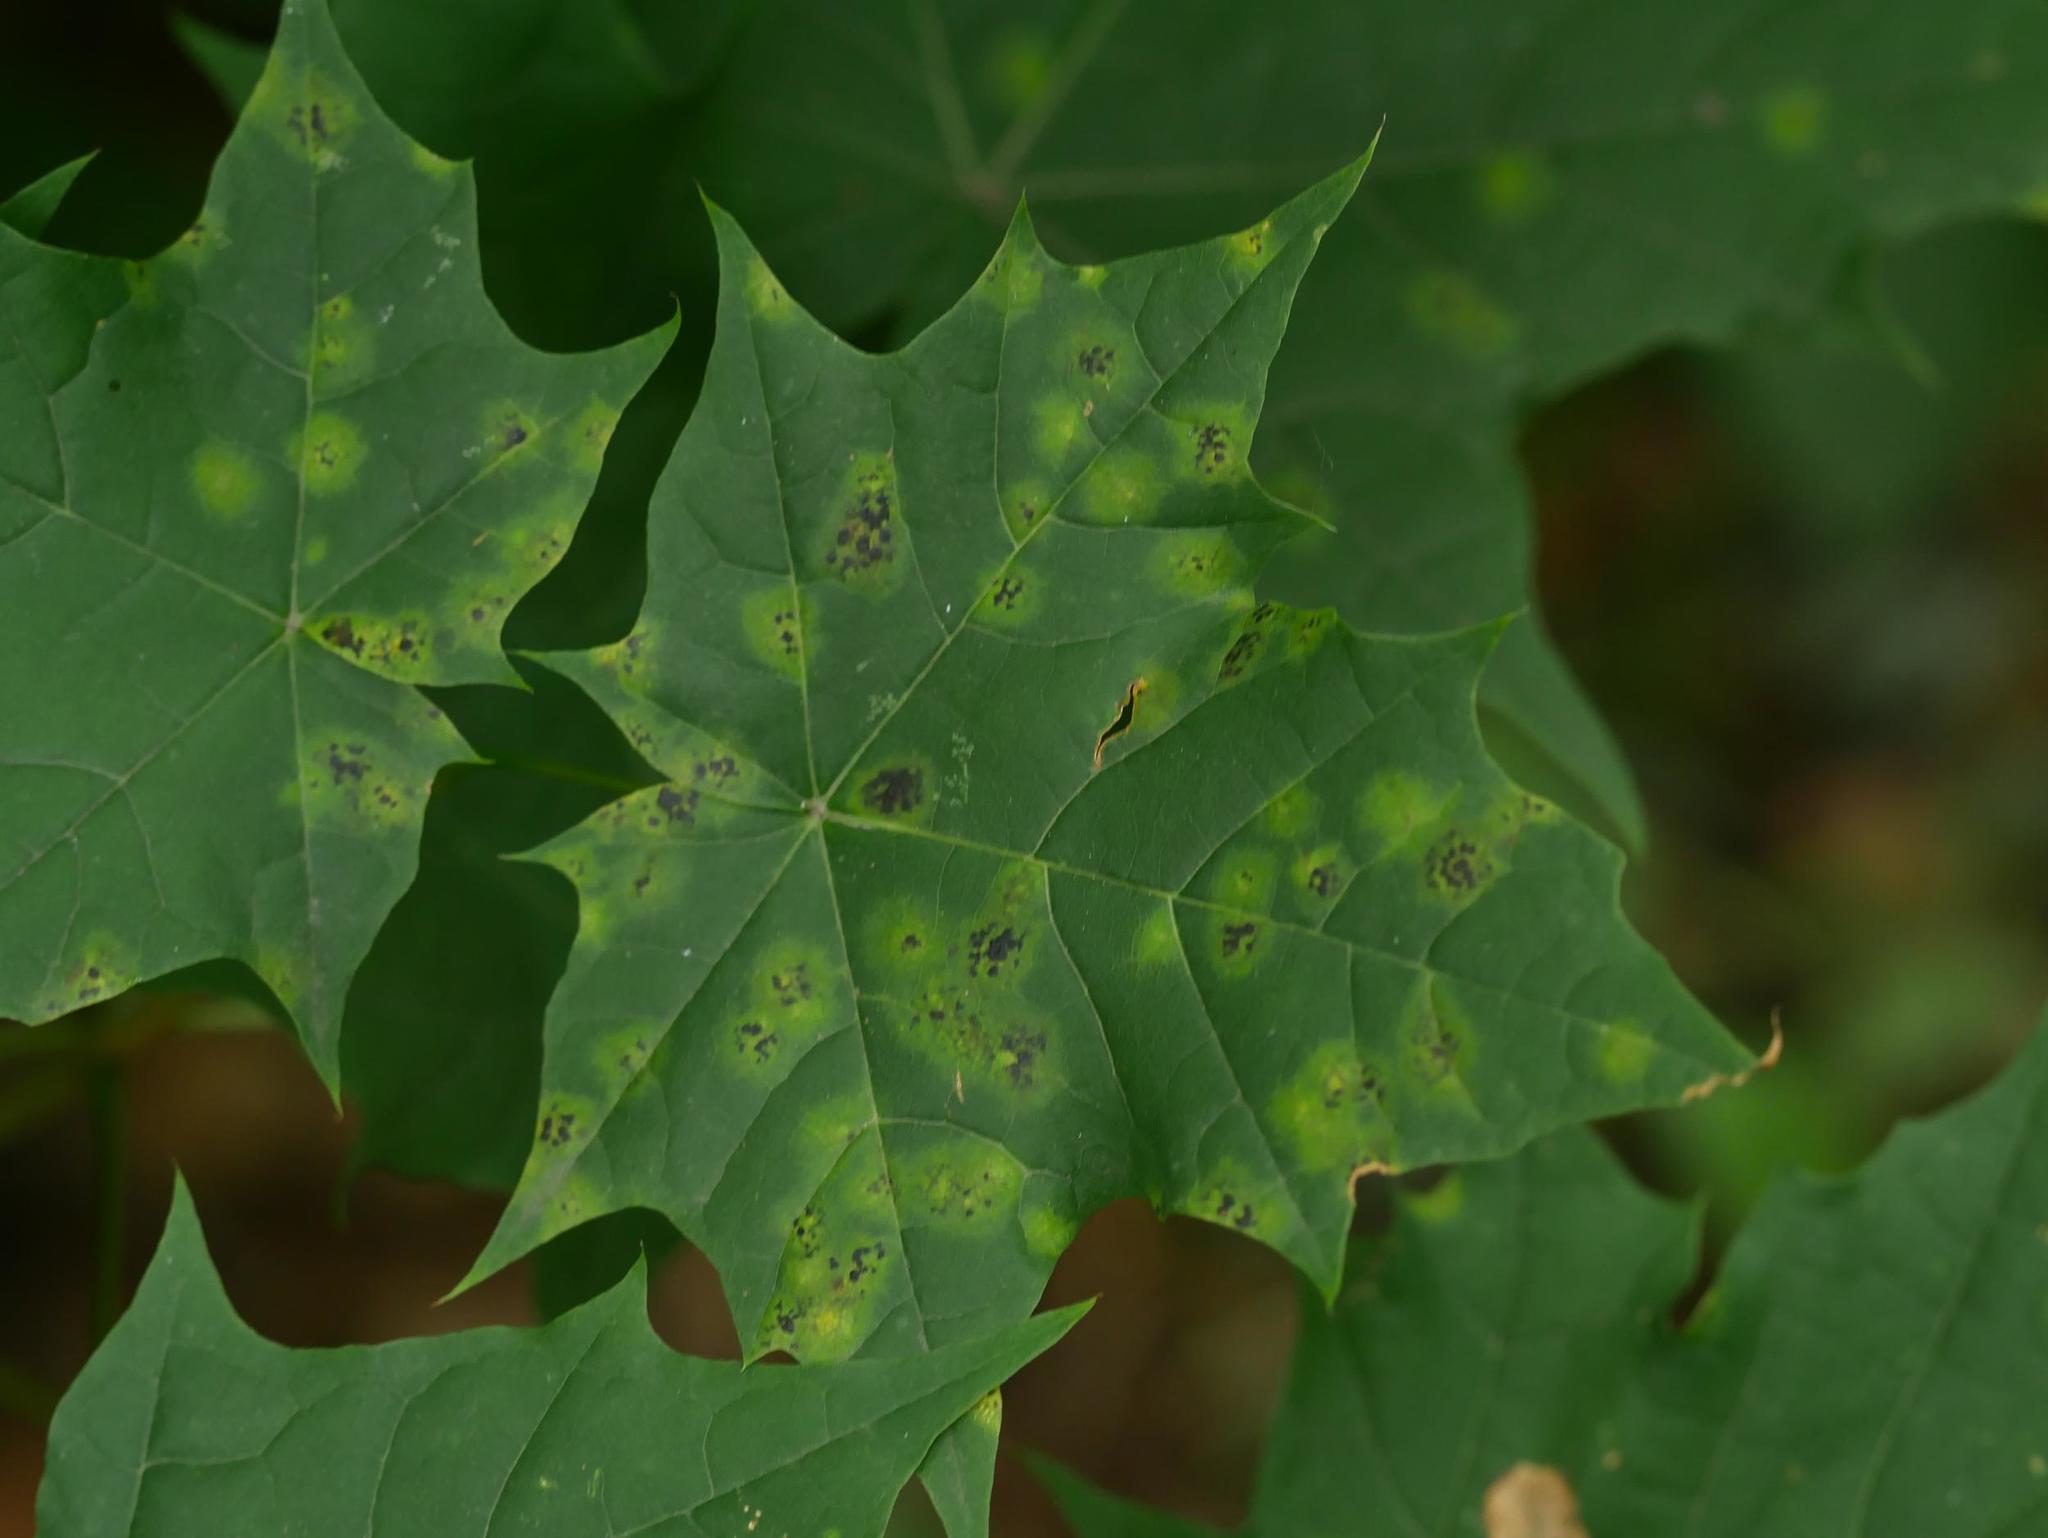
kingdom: Plantae
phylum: Tracheophyta
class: Magnoliopsida
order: Sapindales
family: Sapindaceae
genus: Acer
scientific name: Acer platanoides
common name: Norway maple
